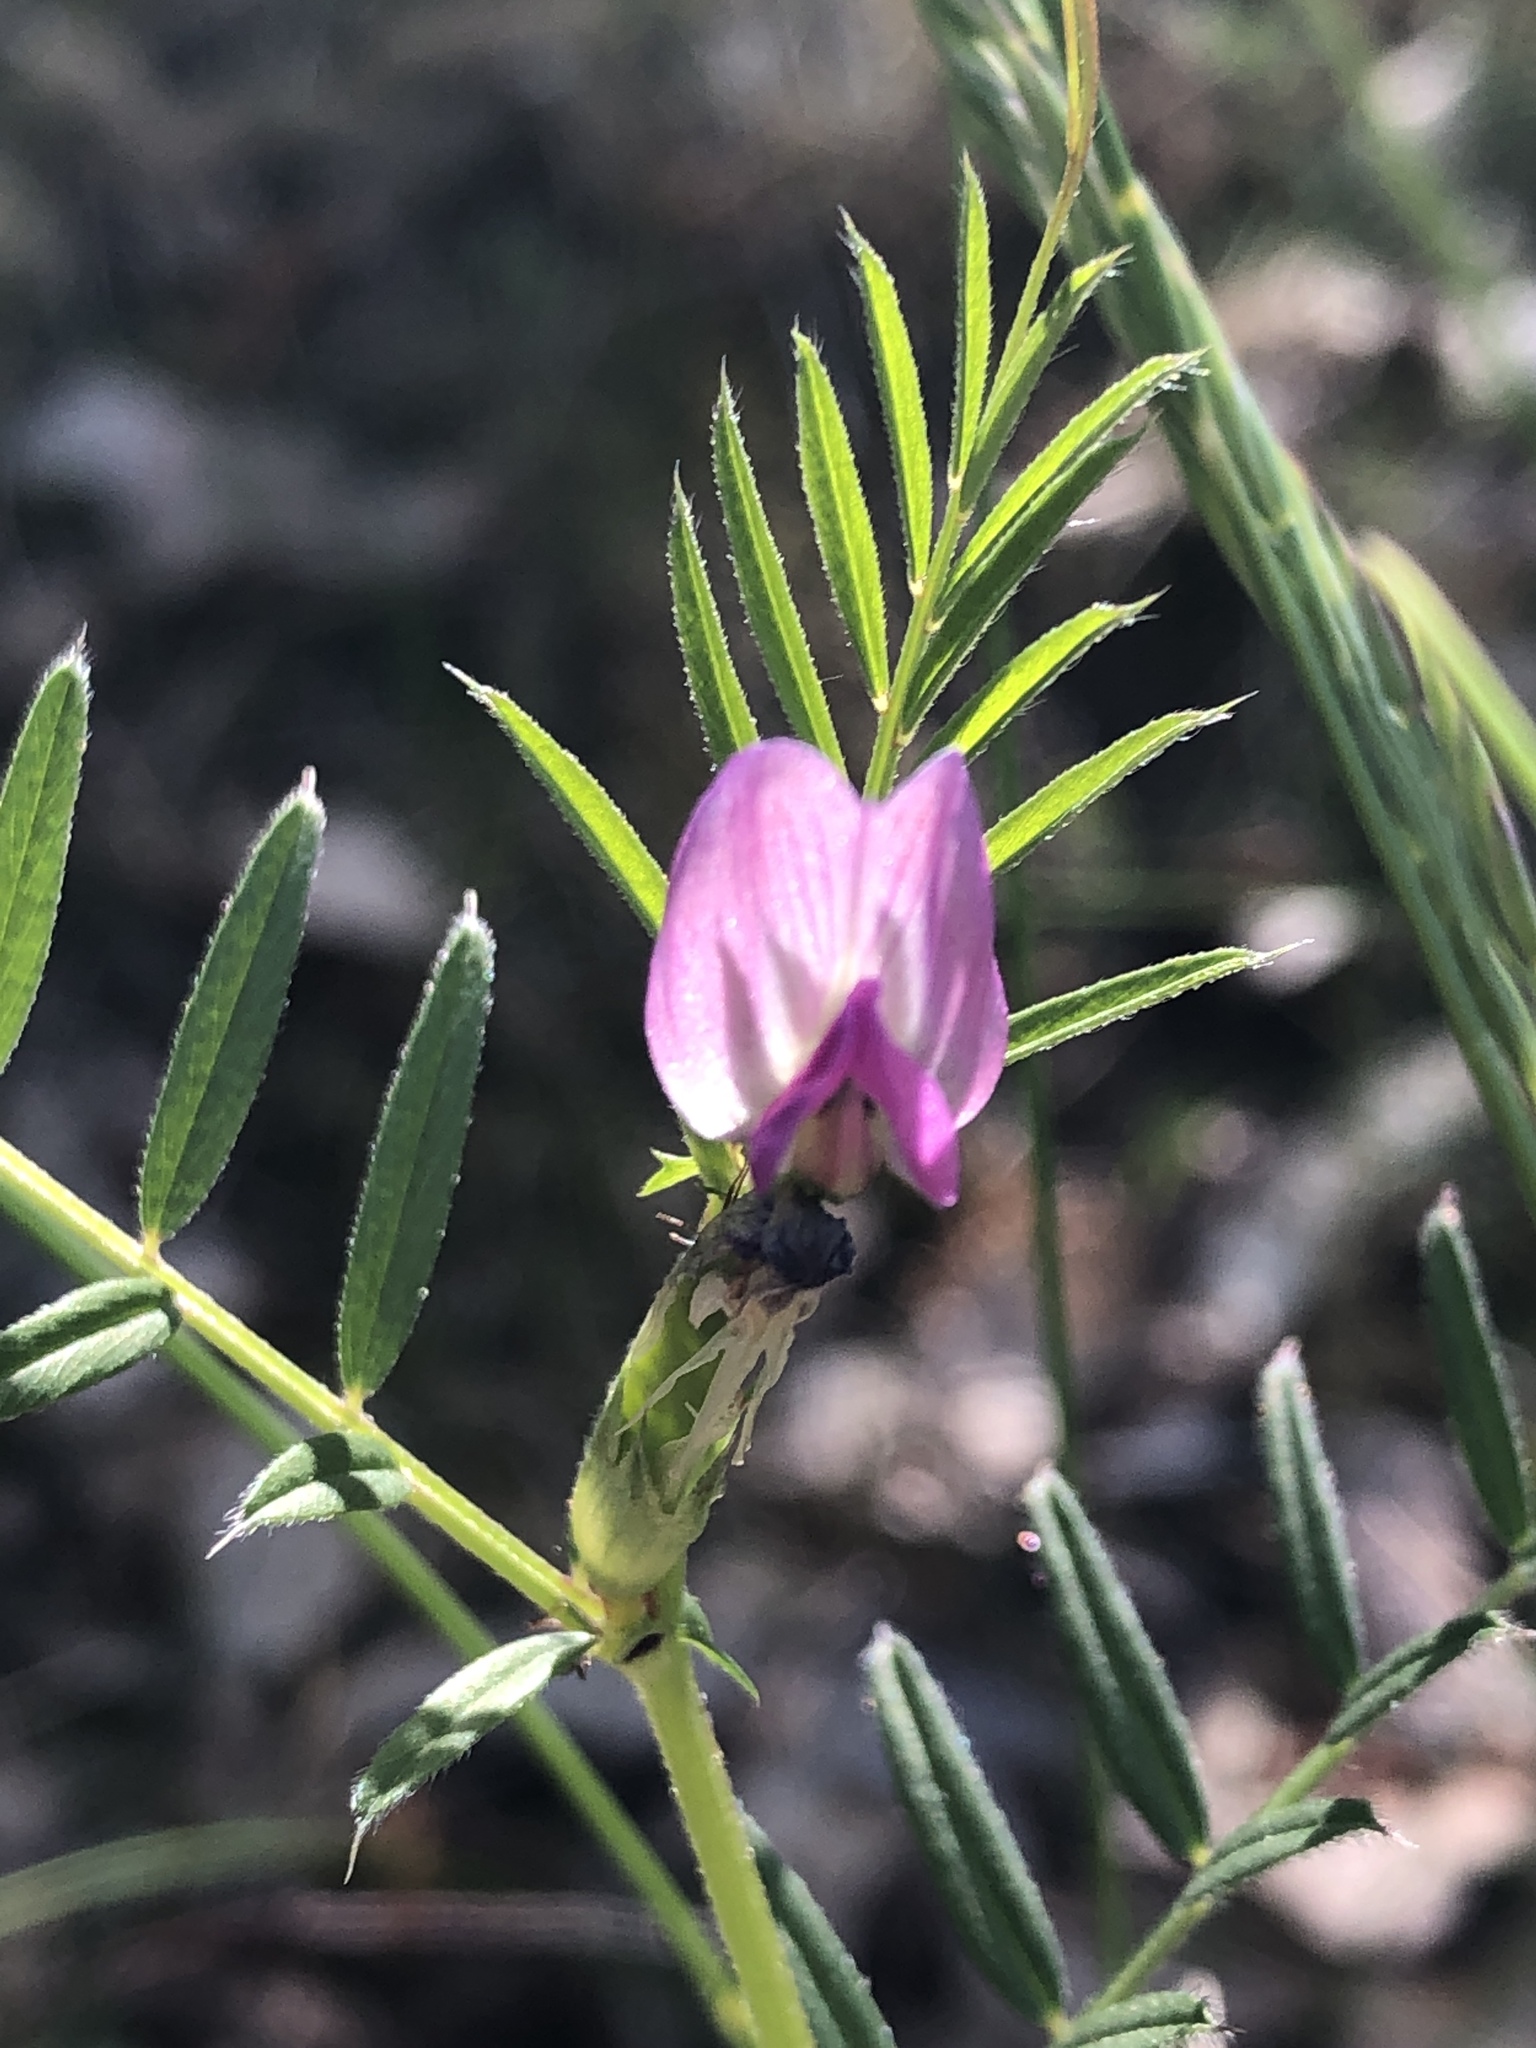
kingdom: Plantae
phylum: Tracheophyta
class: Magnoliopsida
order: Fabales
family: Fabaceae
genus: Vicia
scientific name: Vicia sativa
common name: Garden vetch
